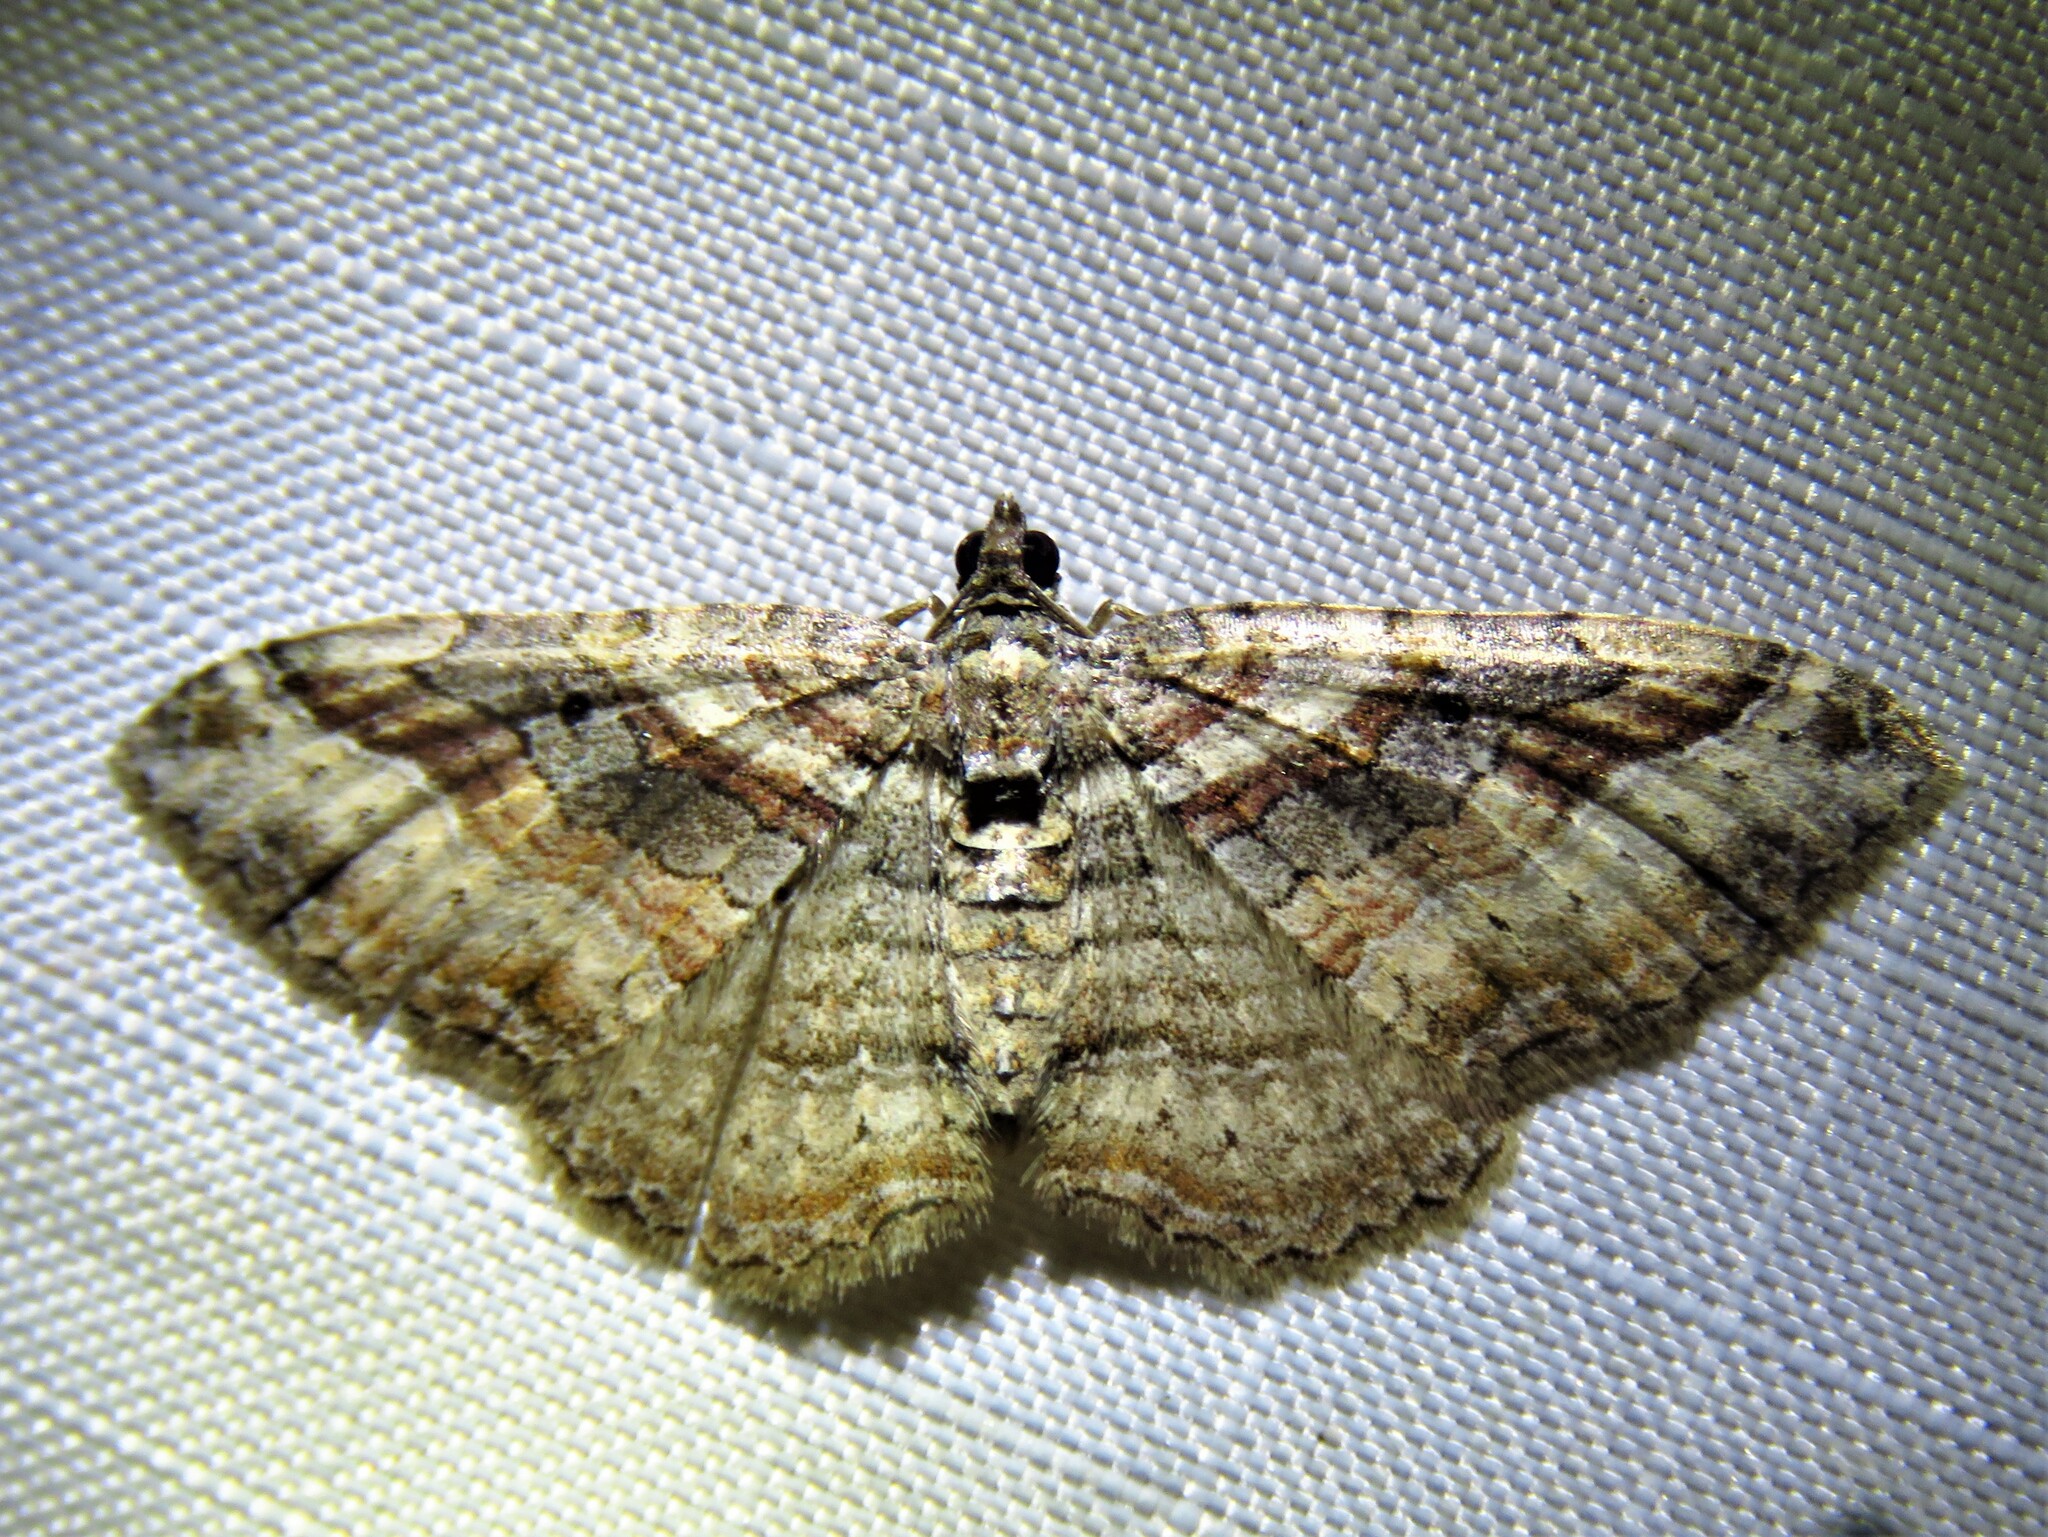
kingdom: Animalia
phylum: Arthropoda
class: Insecta
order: Lepidoptera
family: Geometridae
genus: Costaconvexa
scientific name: Costaconvexa centrostrigaria
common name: Bent-line carpet
